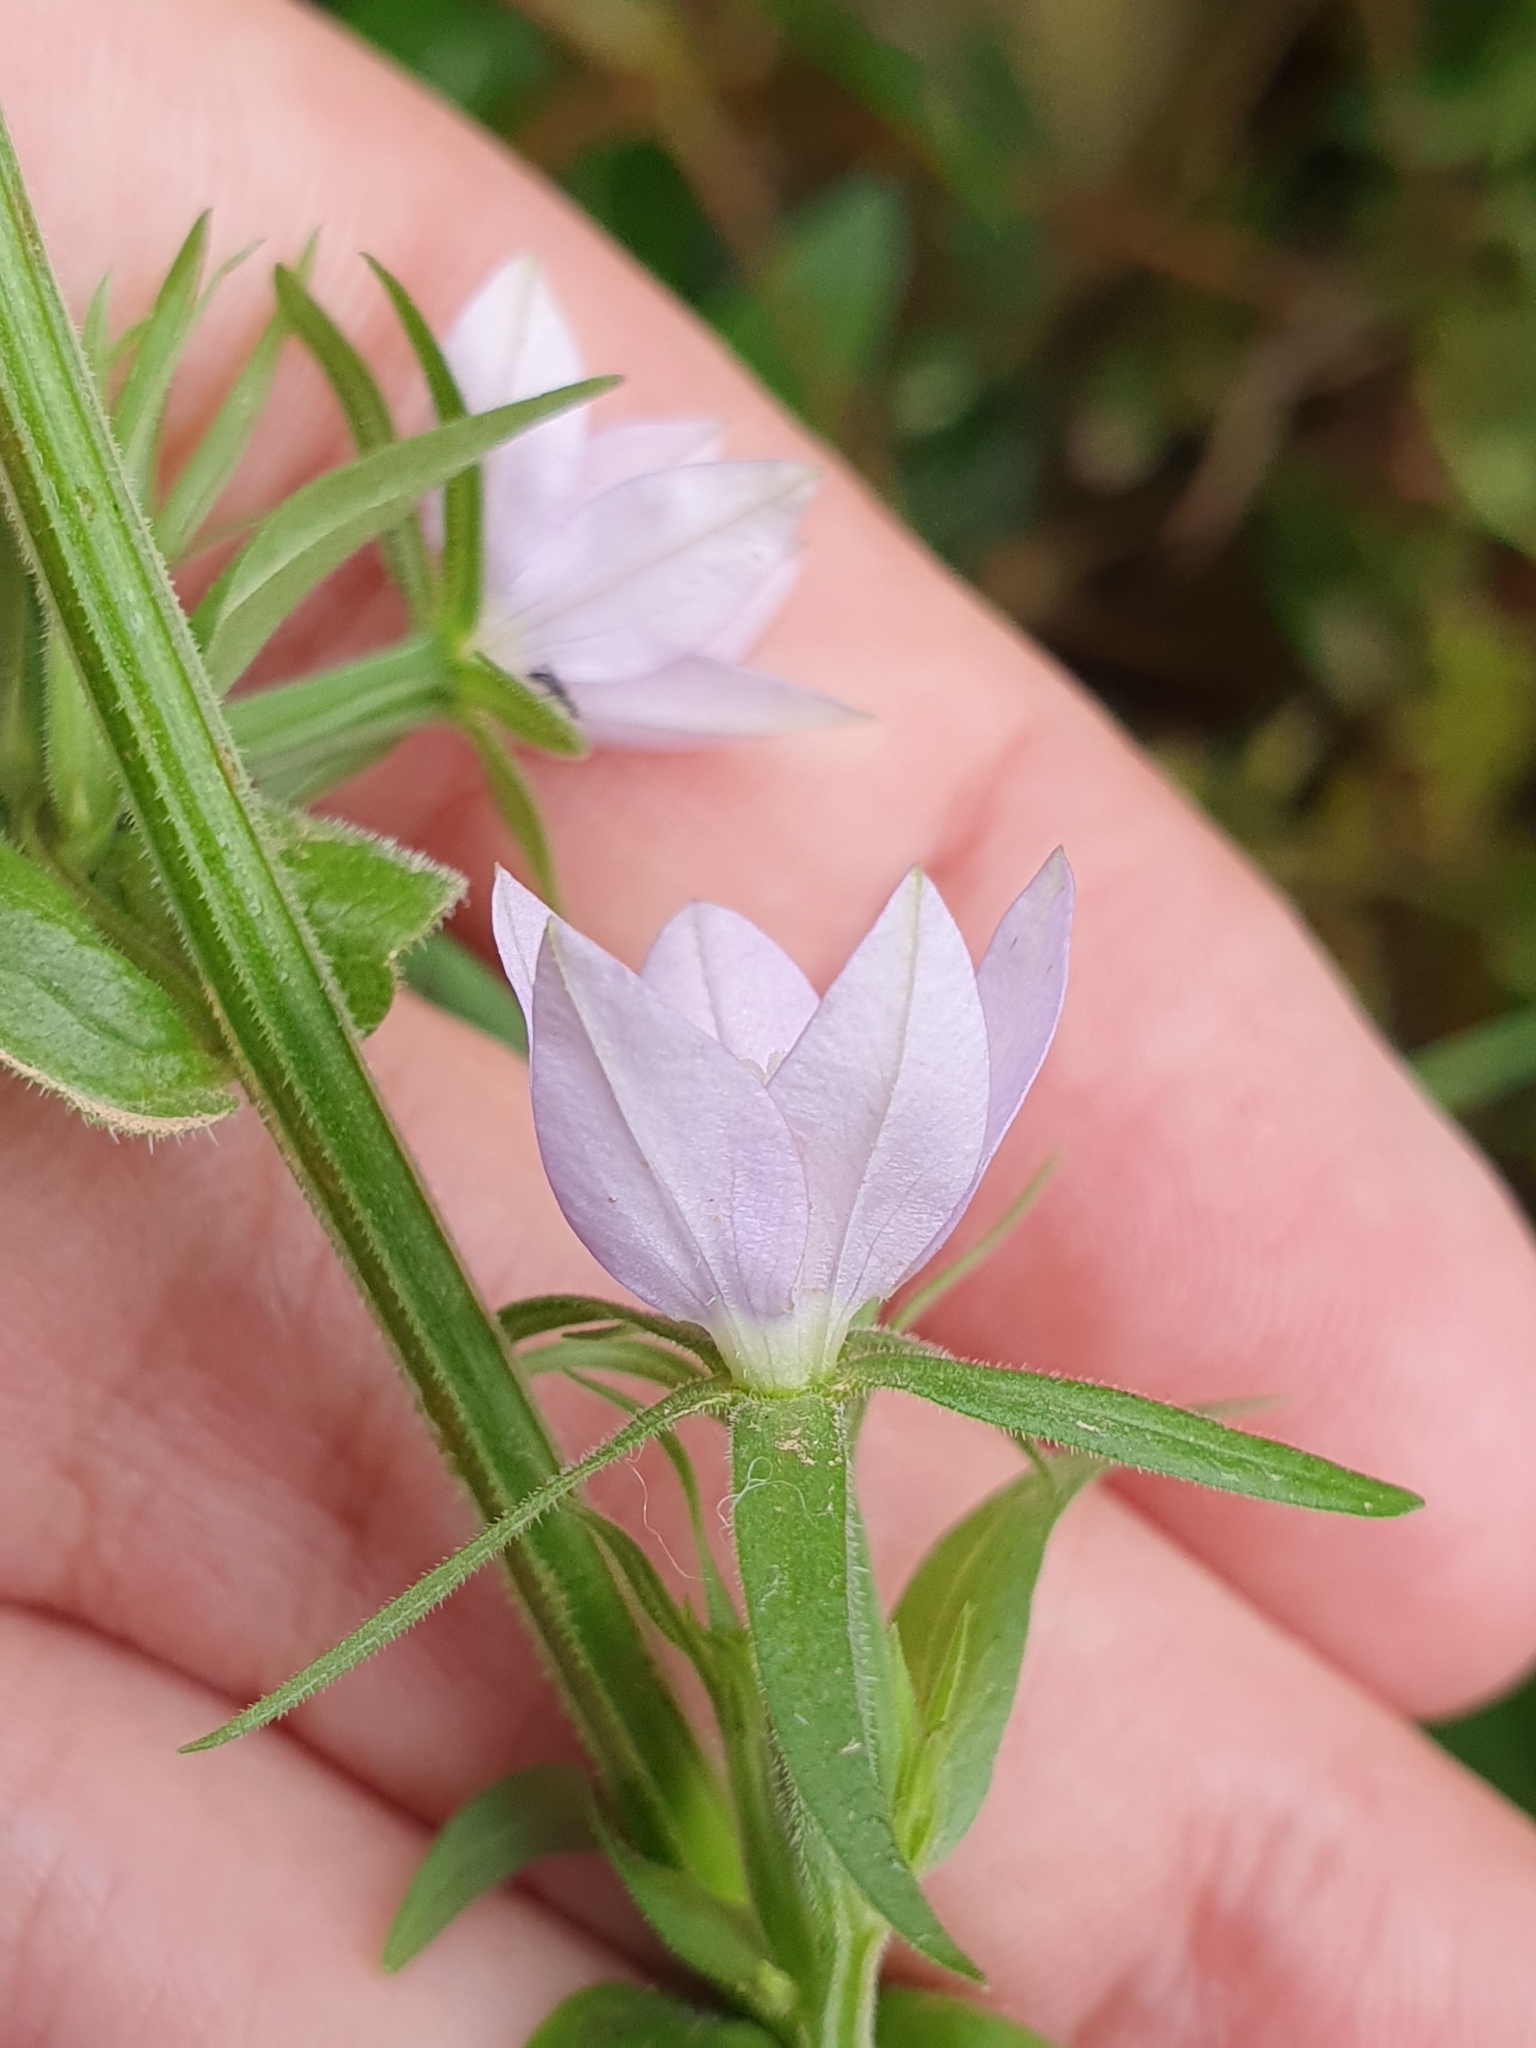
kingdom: Plantae
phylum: Tracheophyta
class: Magnoliopsida
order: Asterales
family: Campanulaceae
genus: Legousia
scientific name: Legousia falcata
